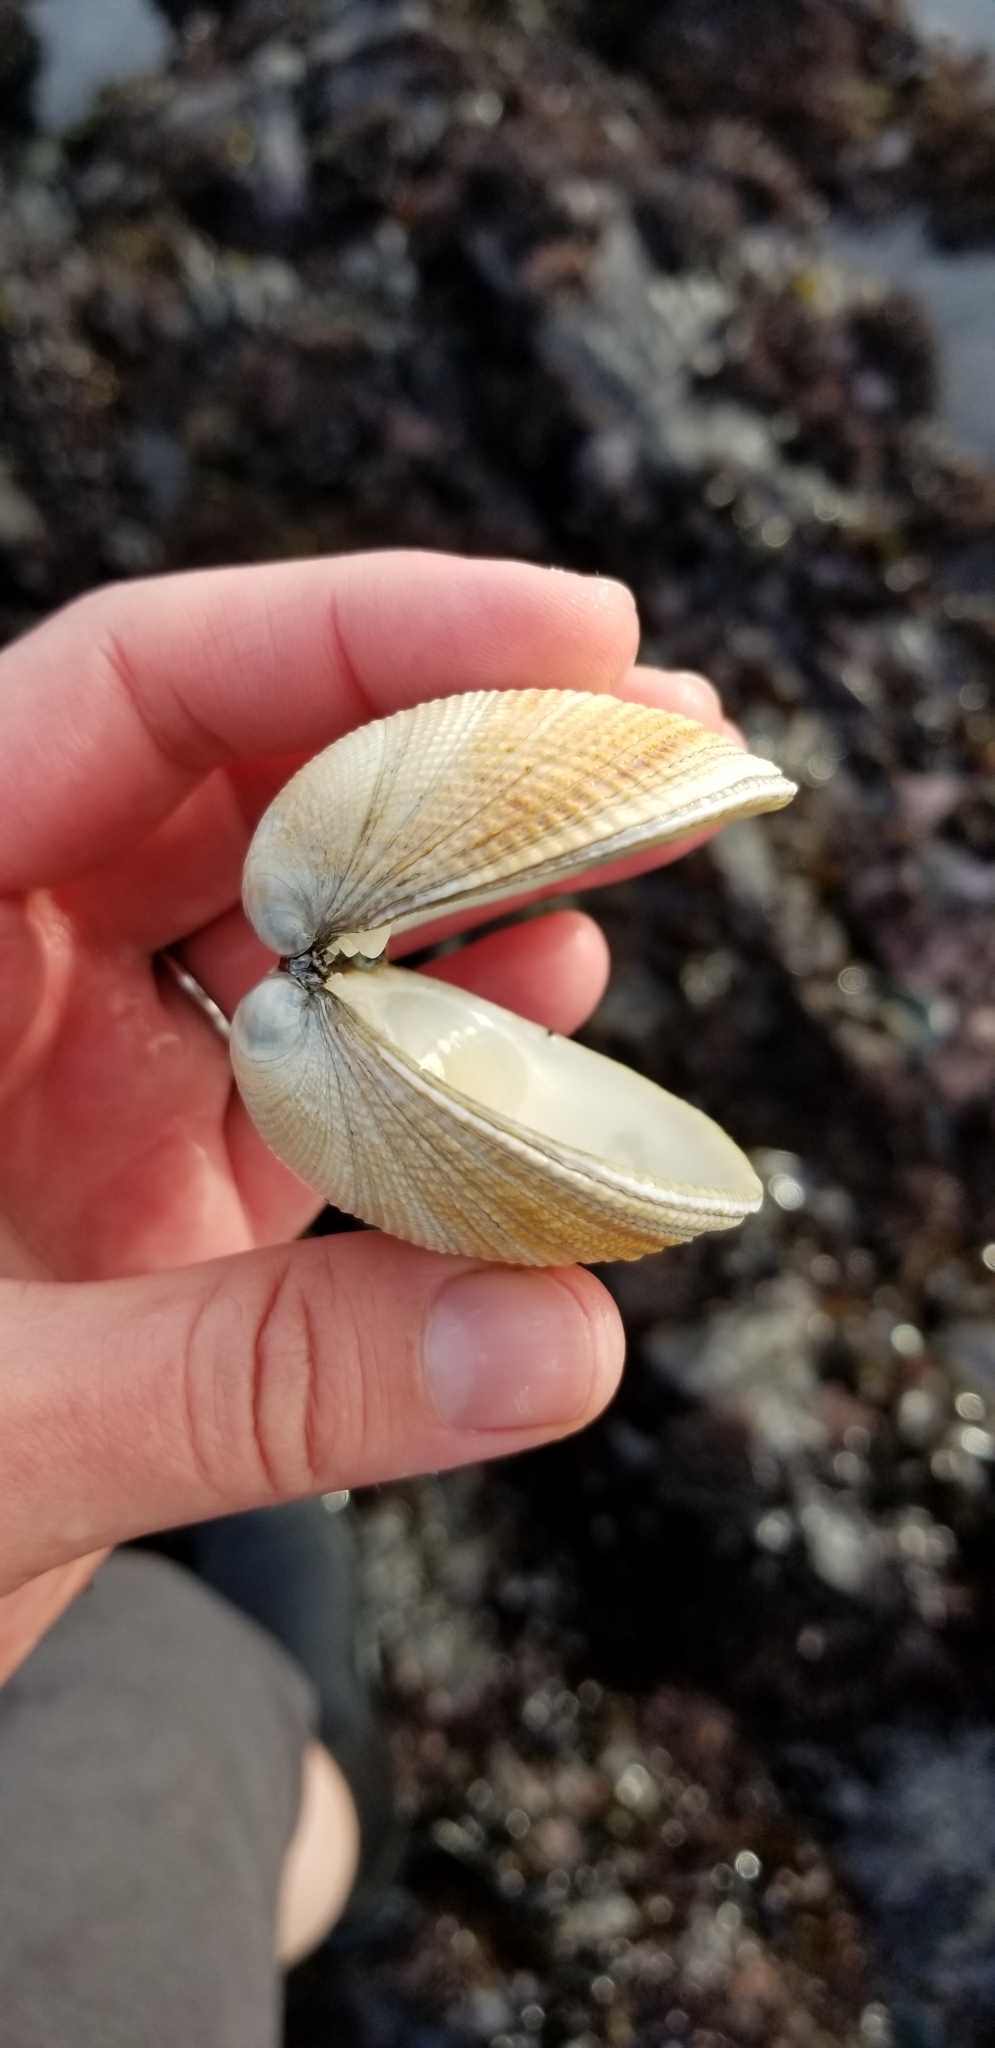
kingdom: Animalia
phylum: Mollusca
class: Bivalvia
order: Venerida
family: Veneridae
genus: Leukoma
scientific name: Leukoma staminea
